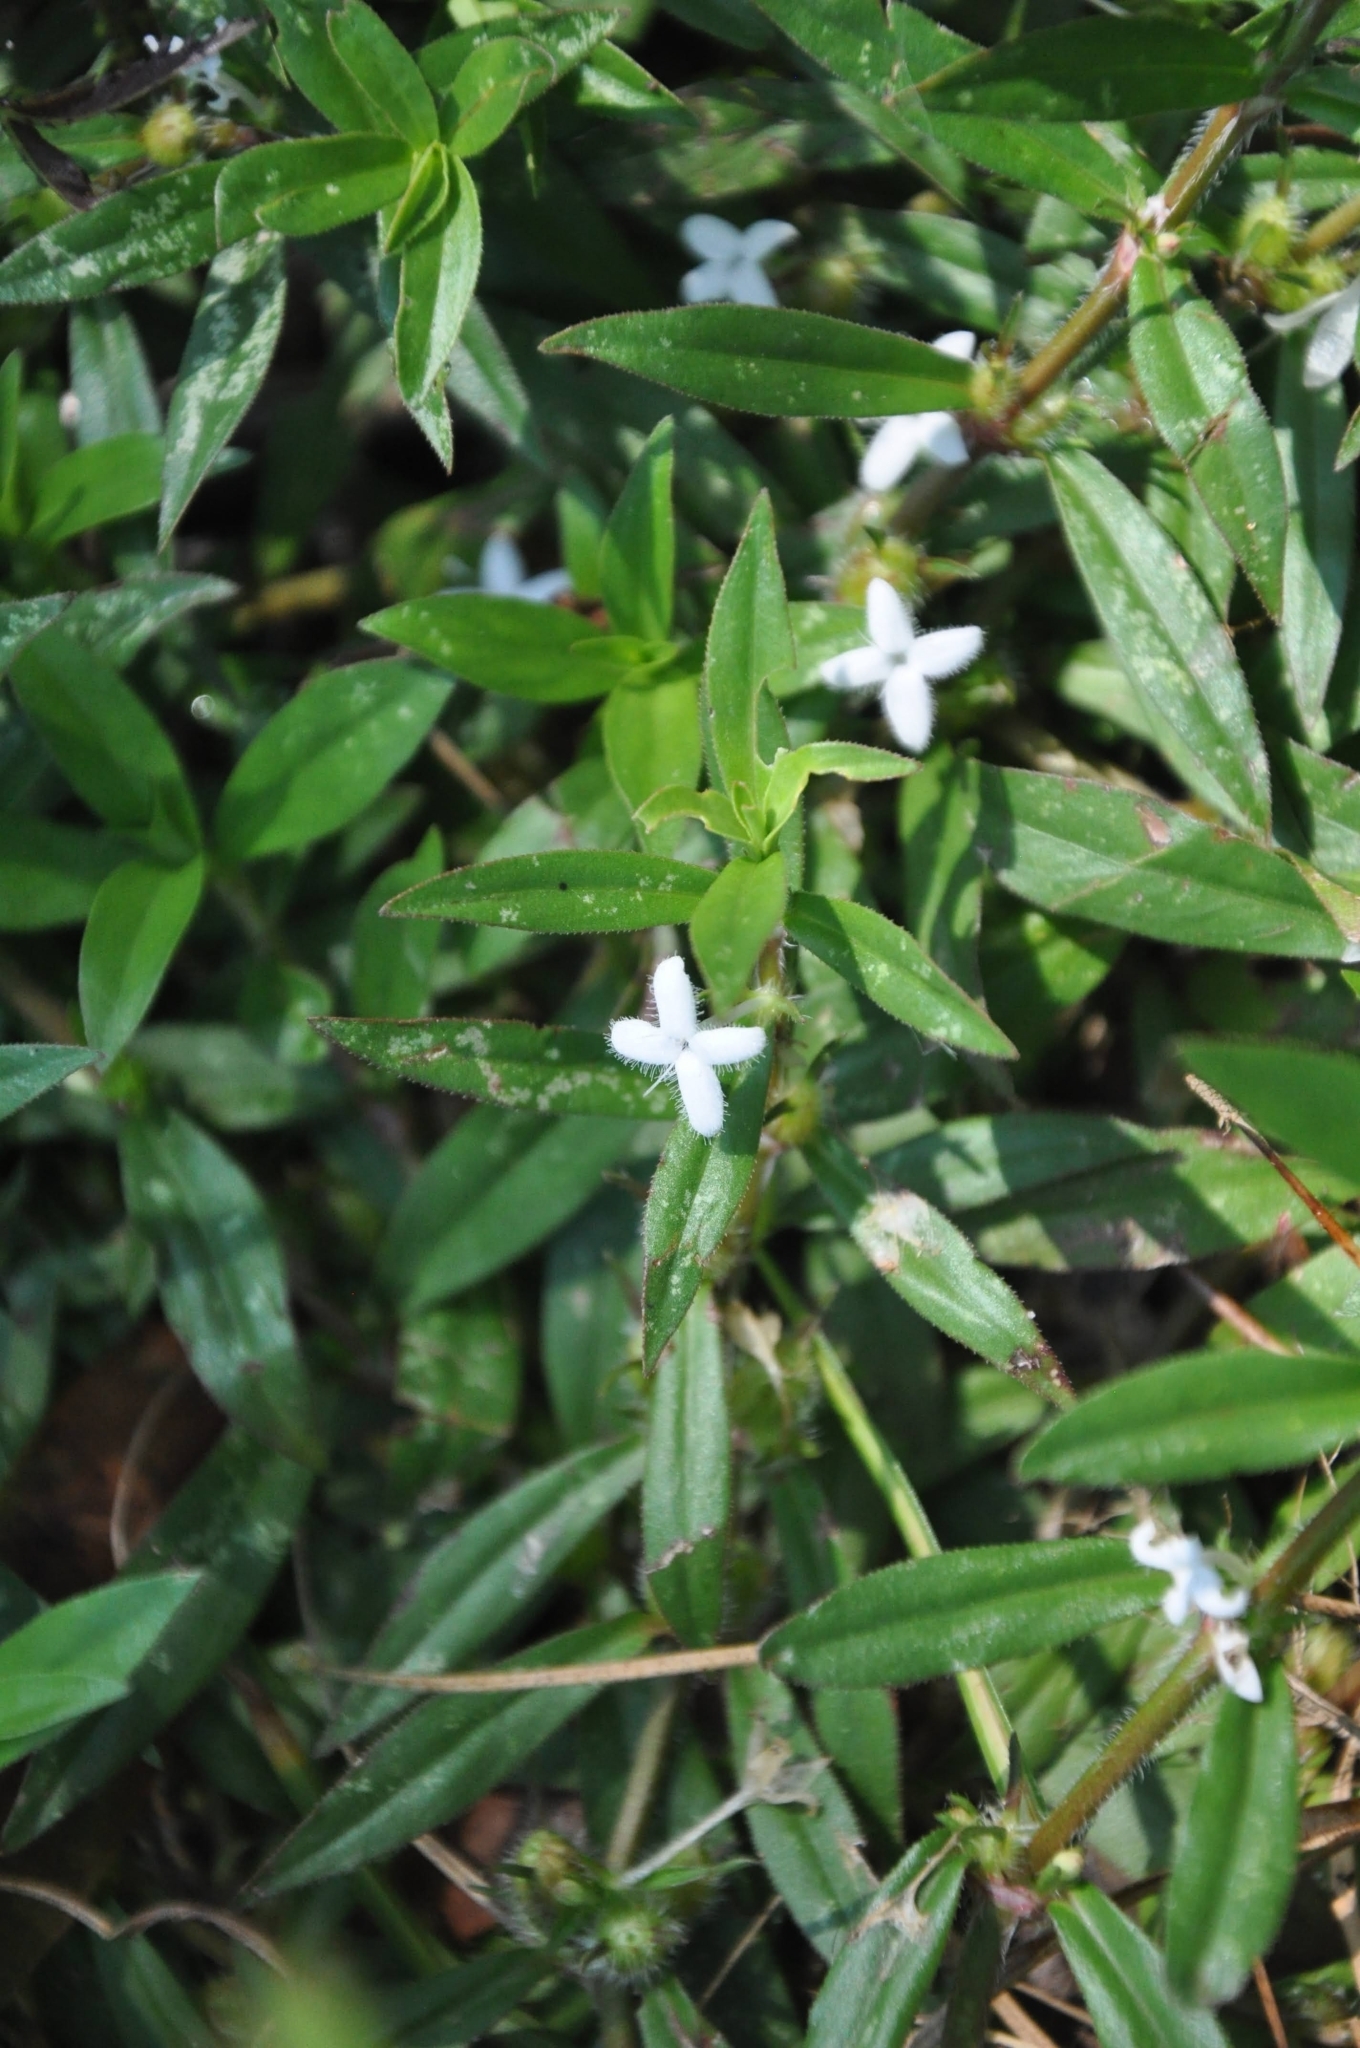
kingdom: Plantae
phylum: Tracheophyta
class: Magnoliopsida
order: Gentianales
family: Rubiaceae
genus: Diodia
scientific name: Diodia virginiana
